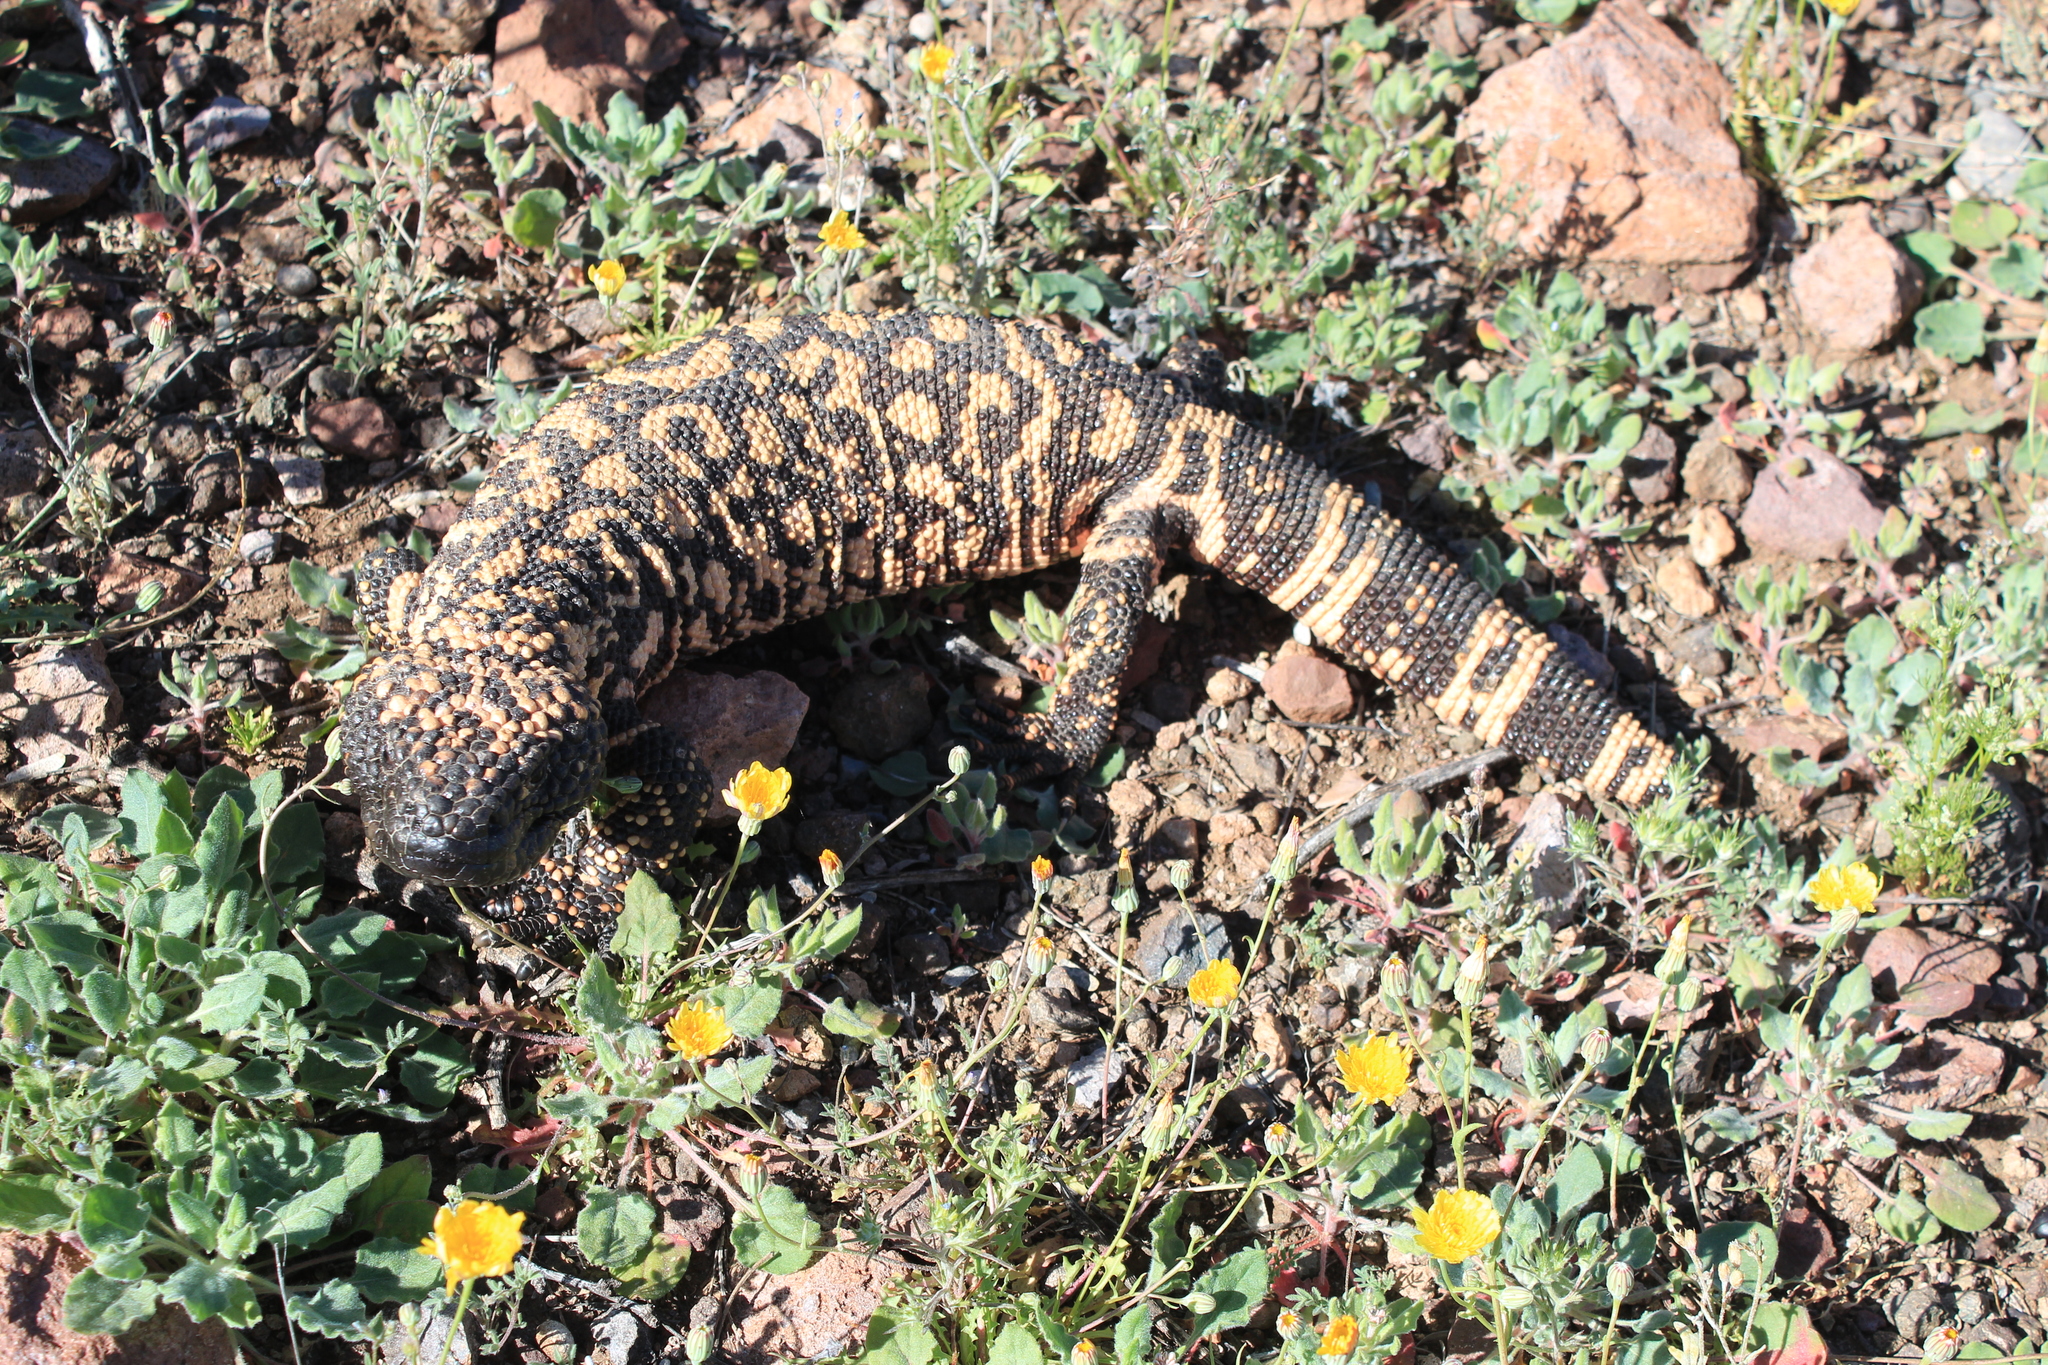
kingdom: Animalia
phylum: Chordata
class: Squamata
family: Helodermatidae
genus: Heloderma
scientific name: Heloderma suspectum
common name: Gila monster
